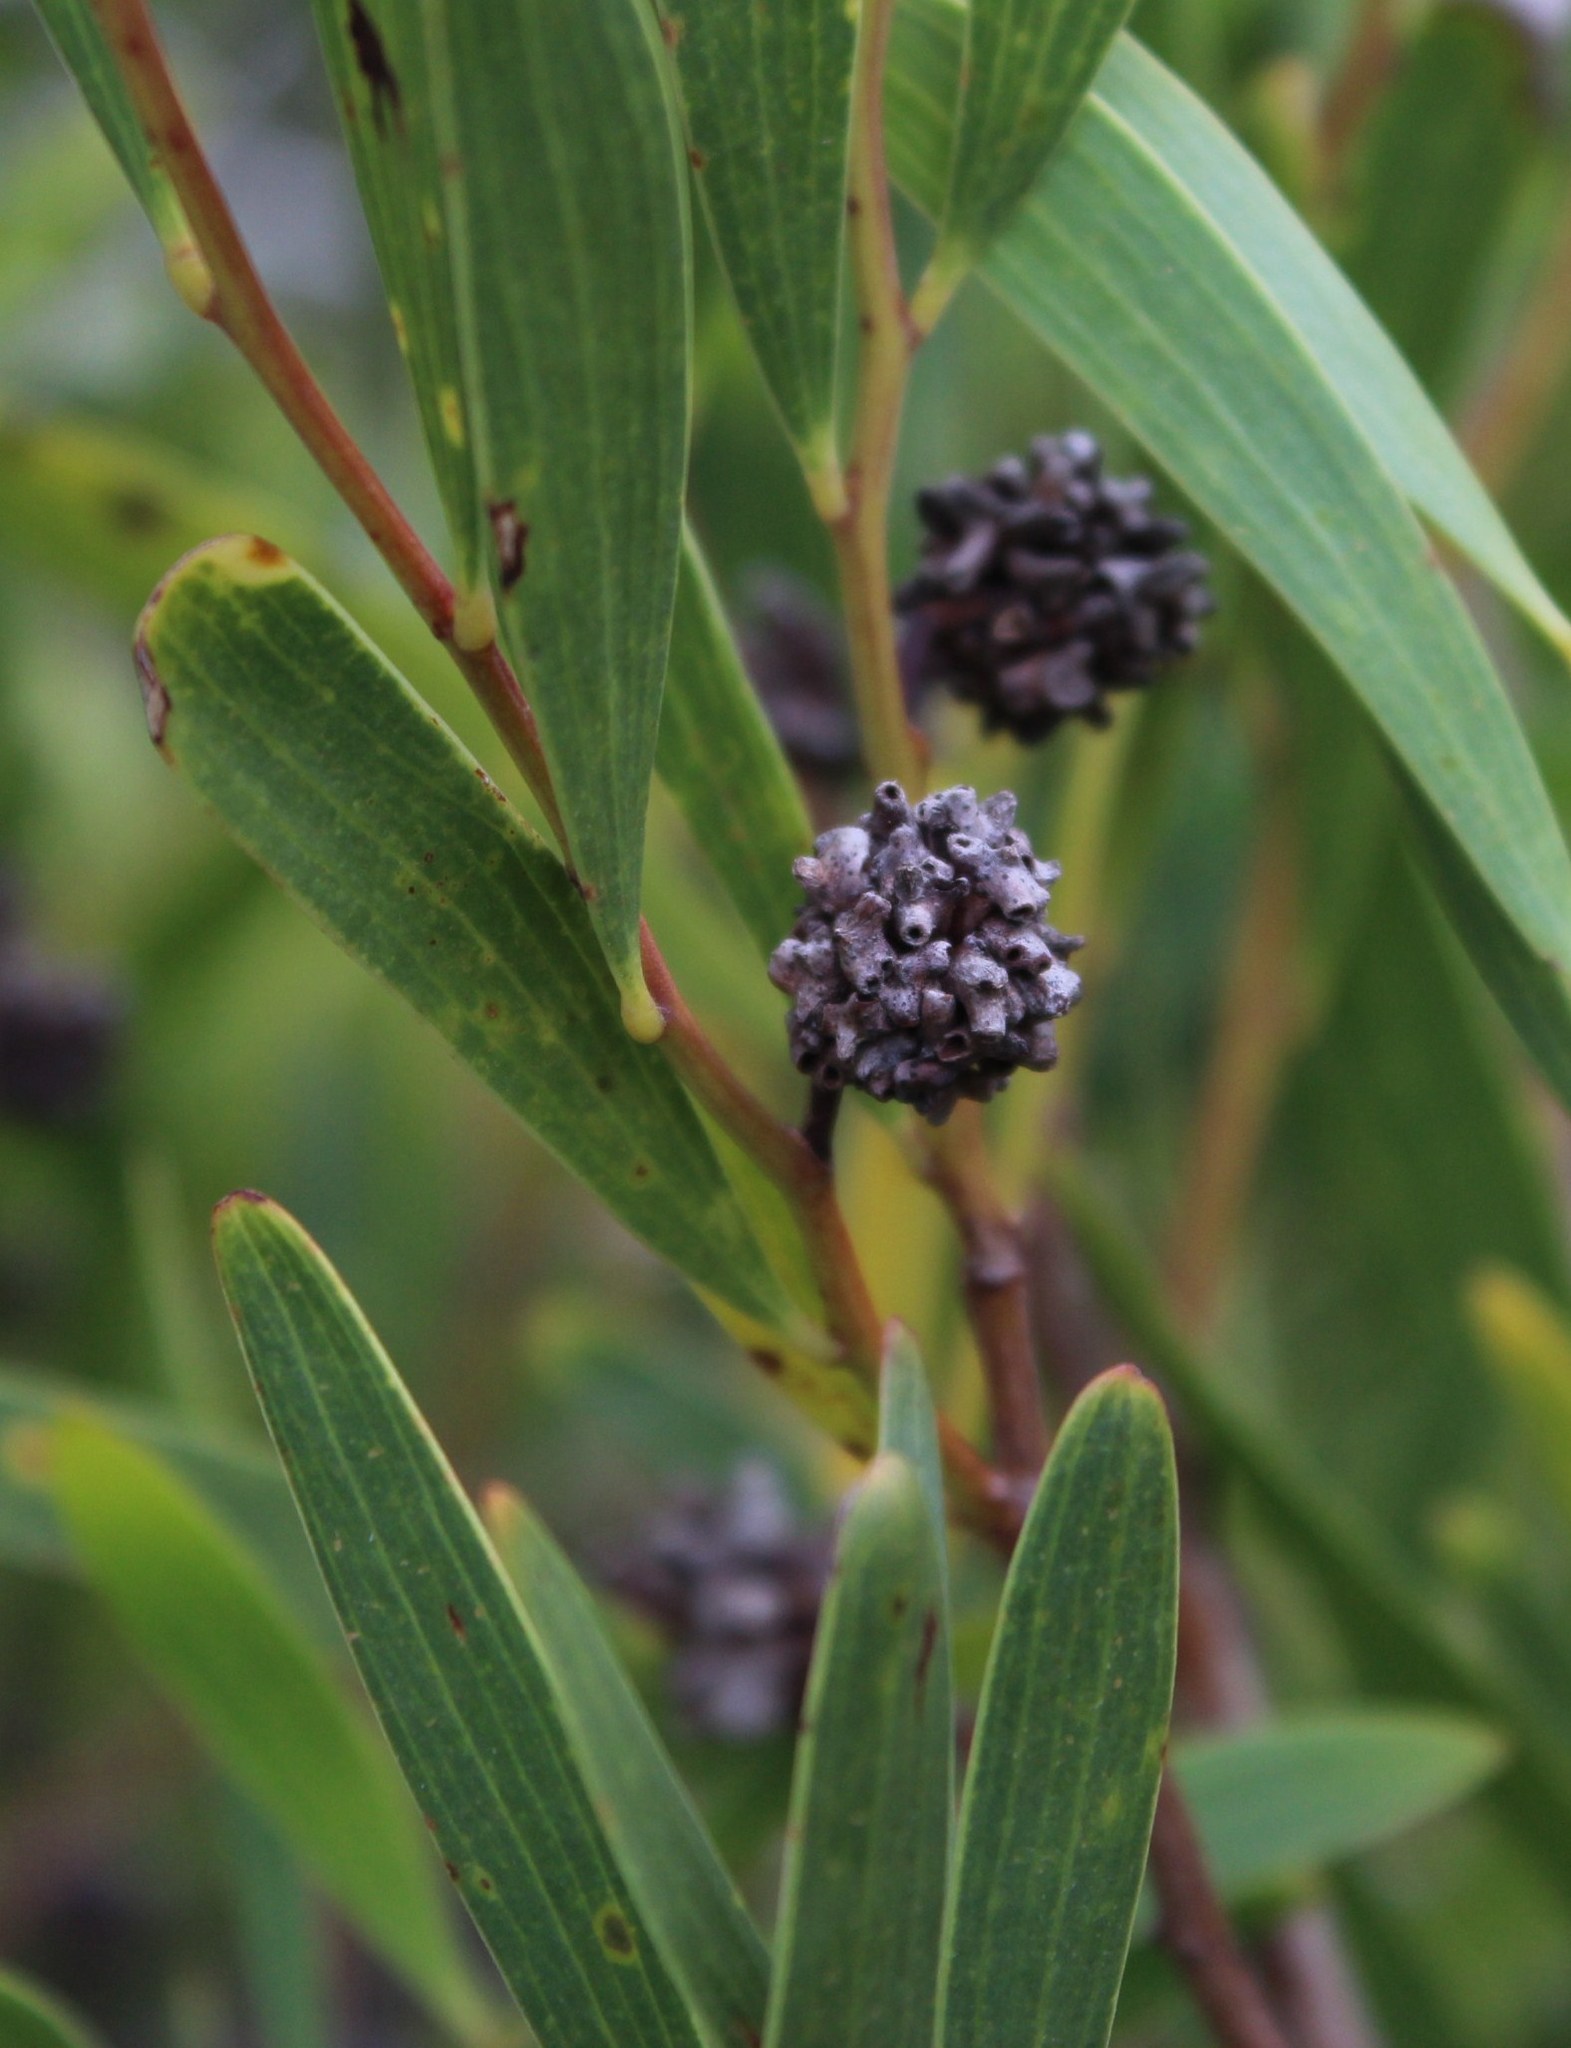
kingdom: Animalia
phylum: Arthropoda
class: Insecta
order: Diptera
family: Cecidomyiidae
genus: Dasineura
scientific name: Dasineura dielsi
